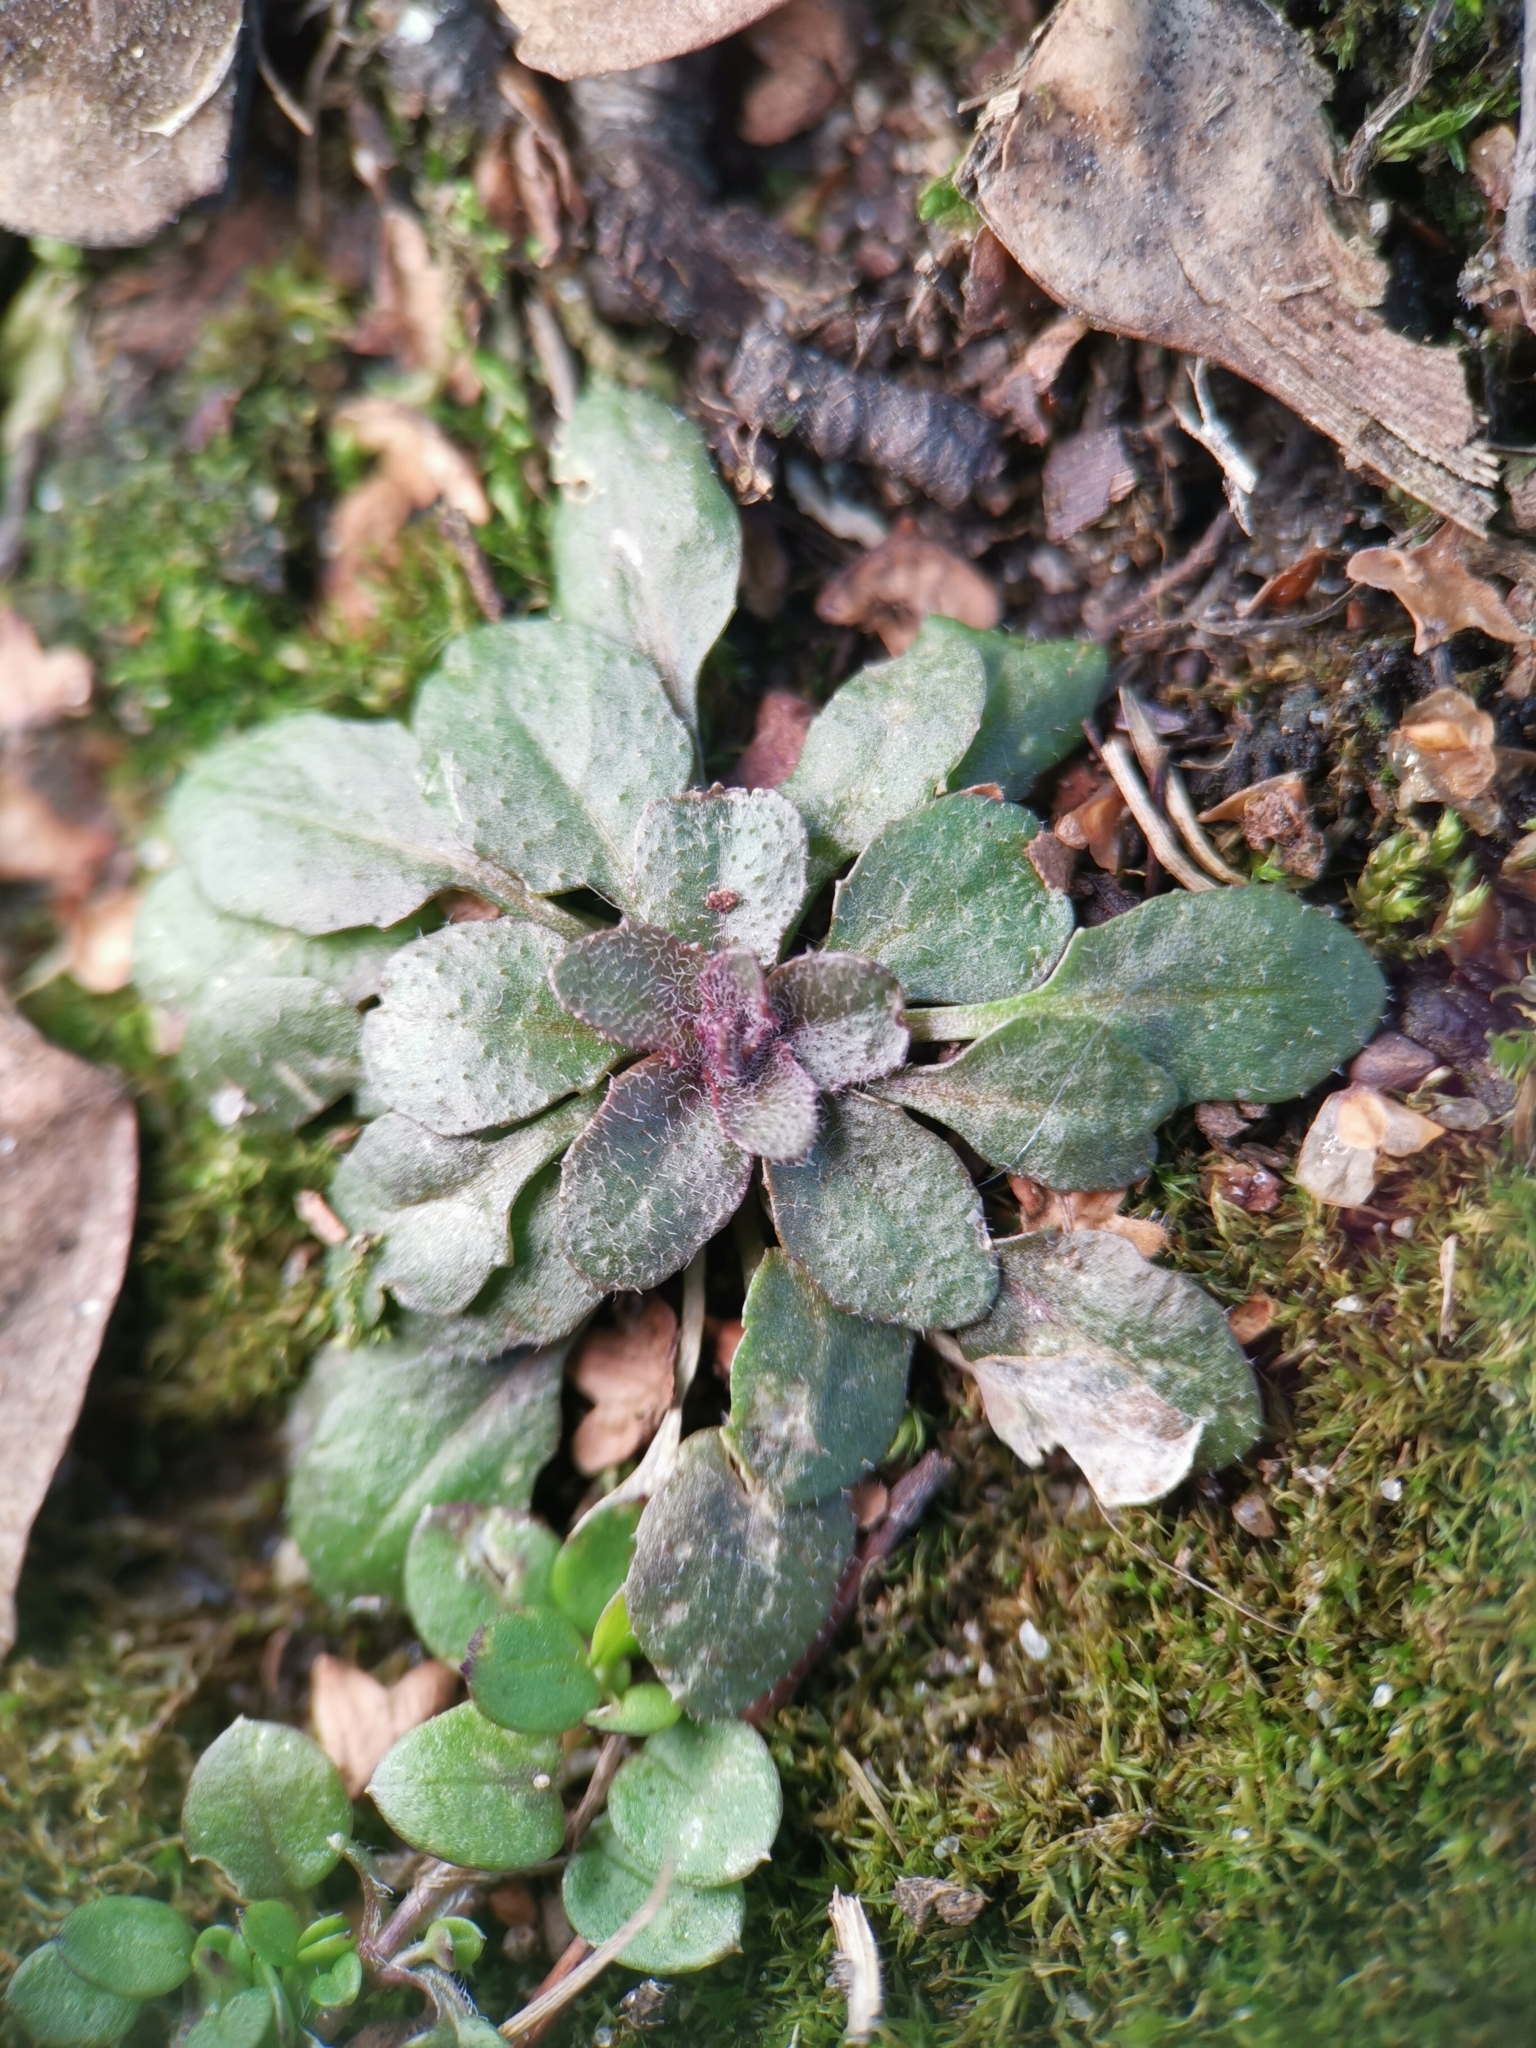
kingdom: Plantae
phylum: Tracheophyta
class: Magnoliopsida
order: Brassicales
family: Brassicaceae
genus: Arabidopsis
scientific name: Arabidopsis thaliana
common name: Thale cress
